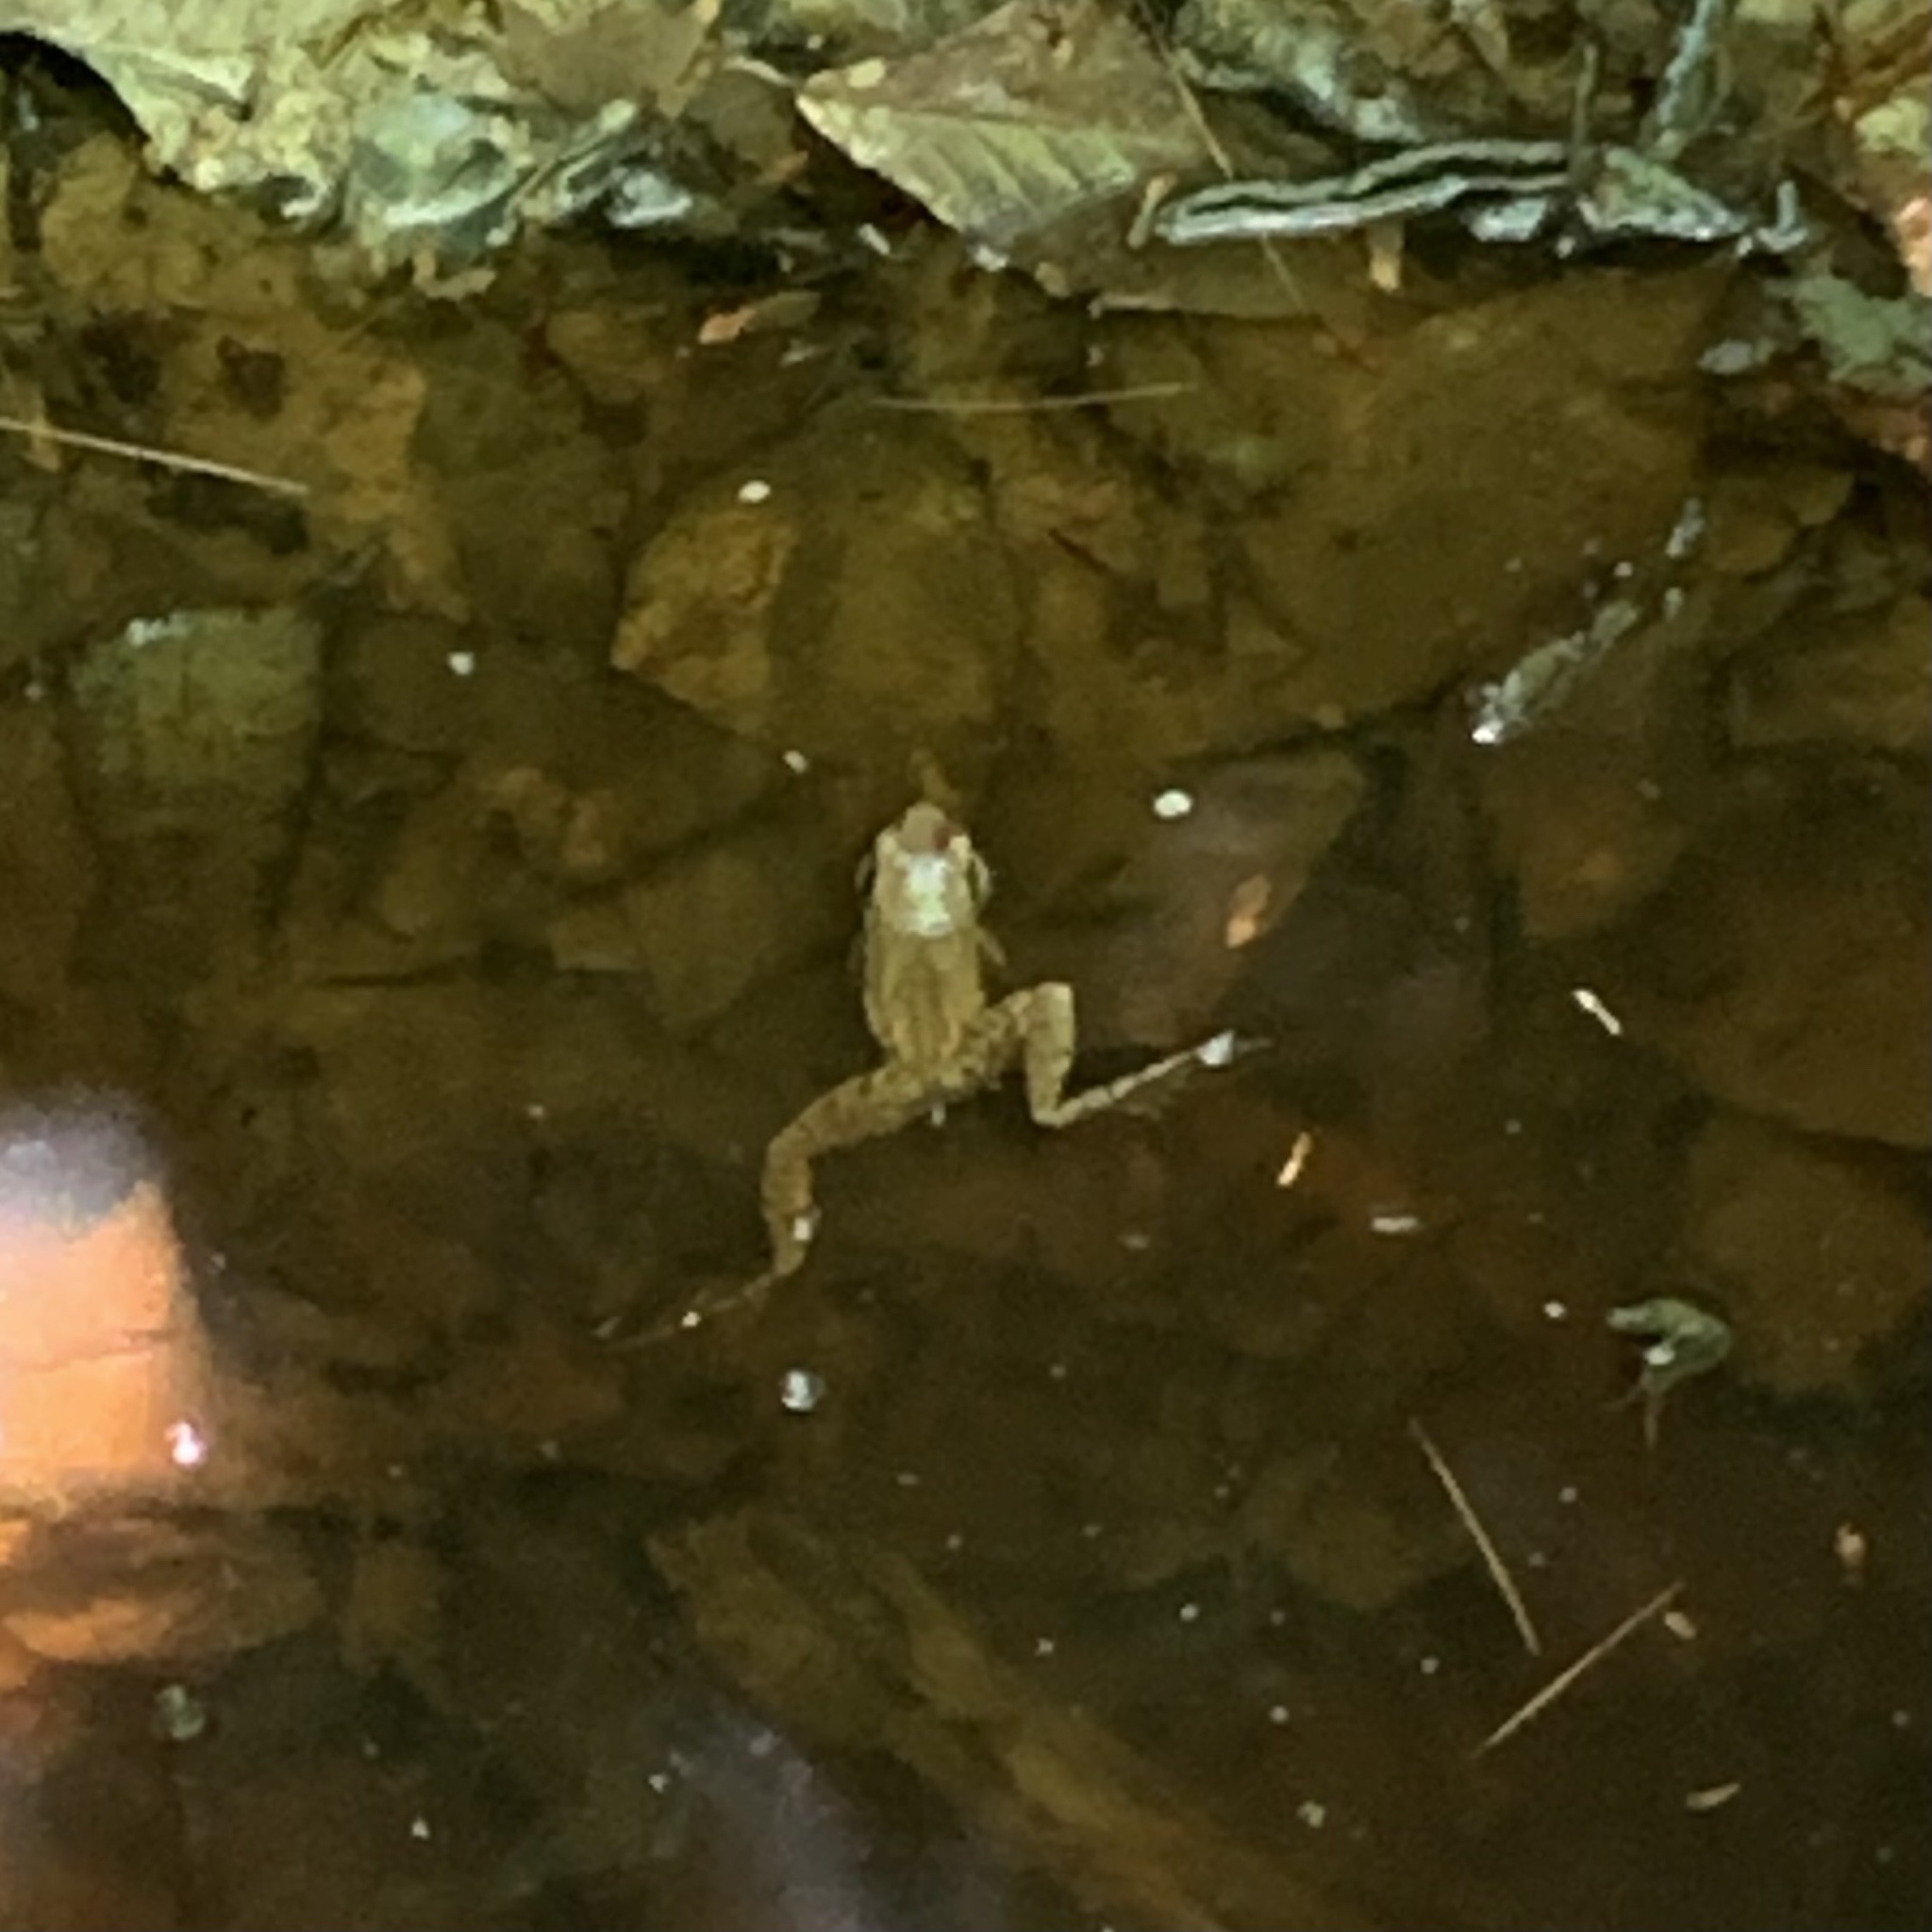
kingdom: Animalia
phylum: Chordata
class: Amphibia
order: Anura
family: Ranidae
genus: Lithobates
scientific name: Lithobates sylvaticus
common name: Wood frog
